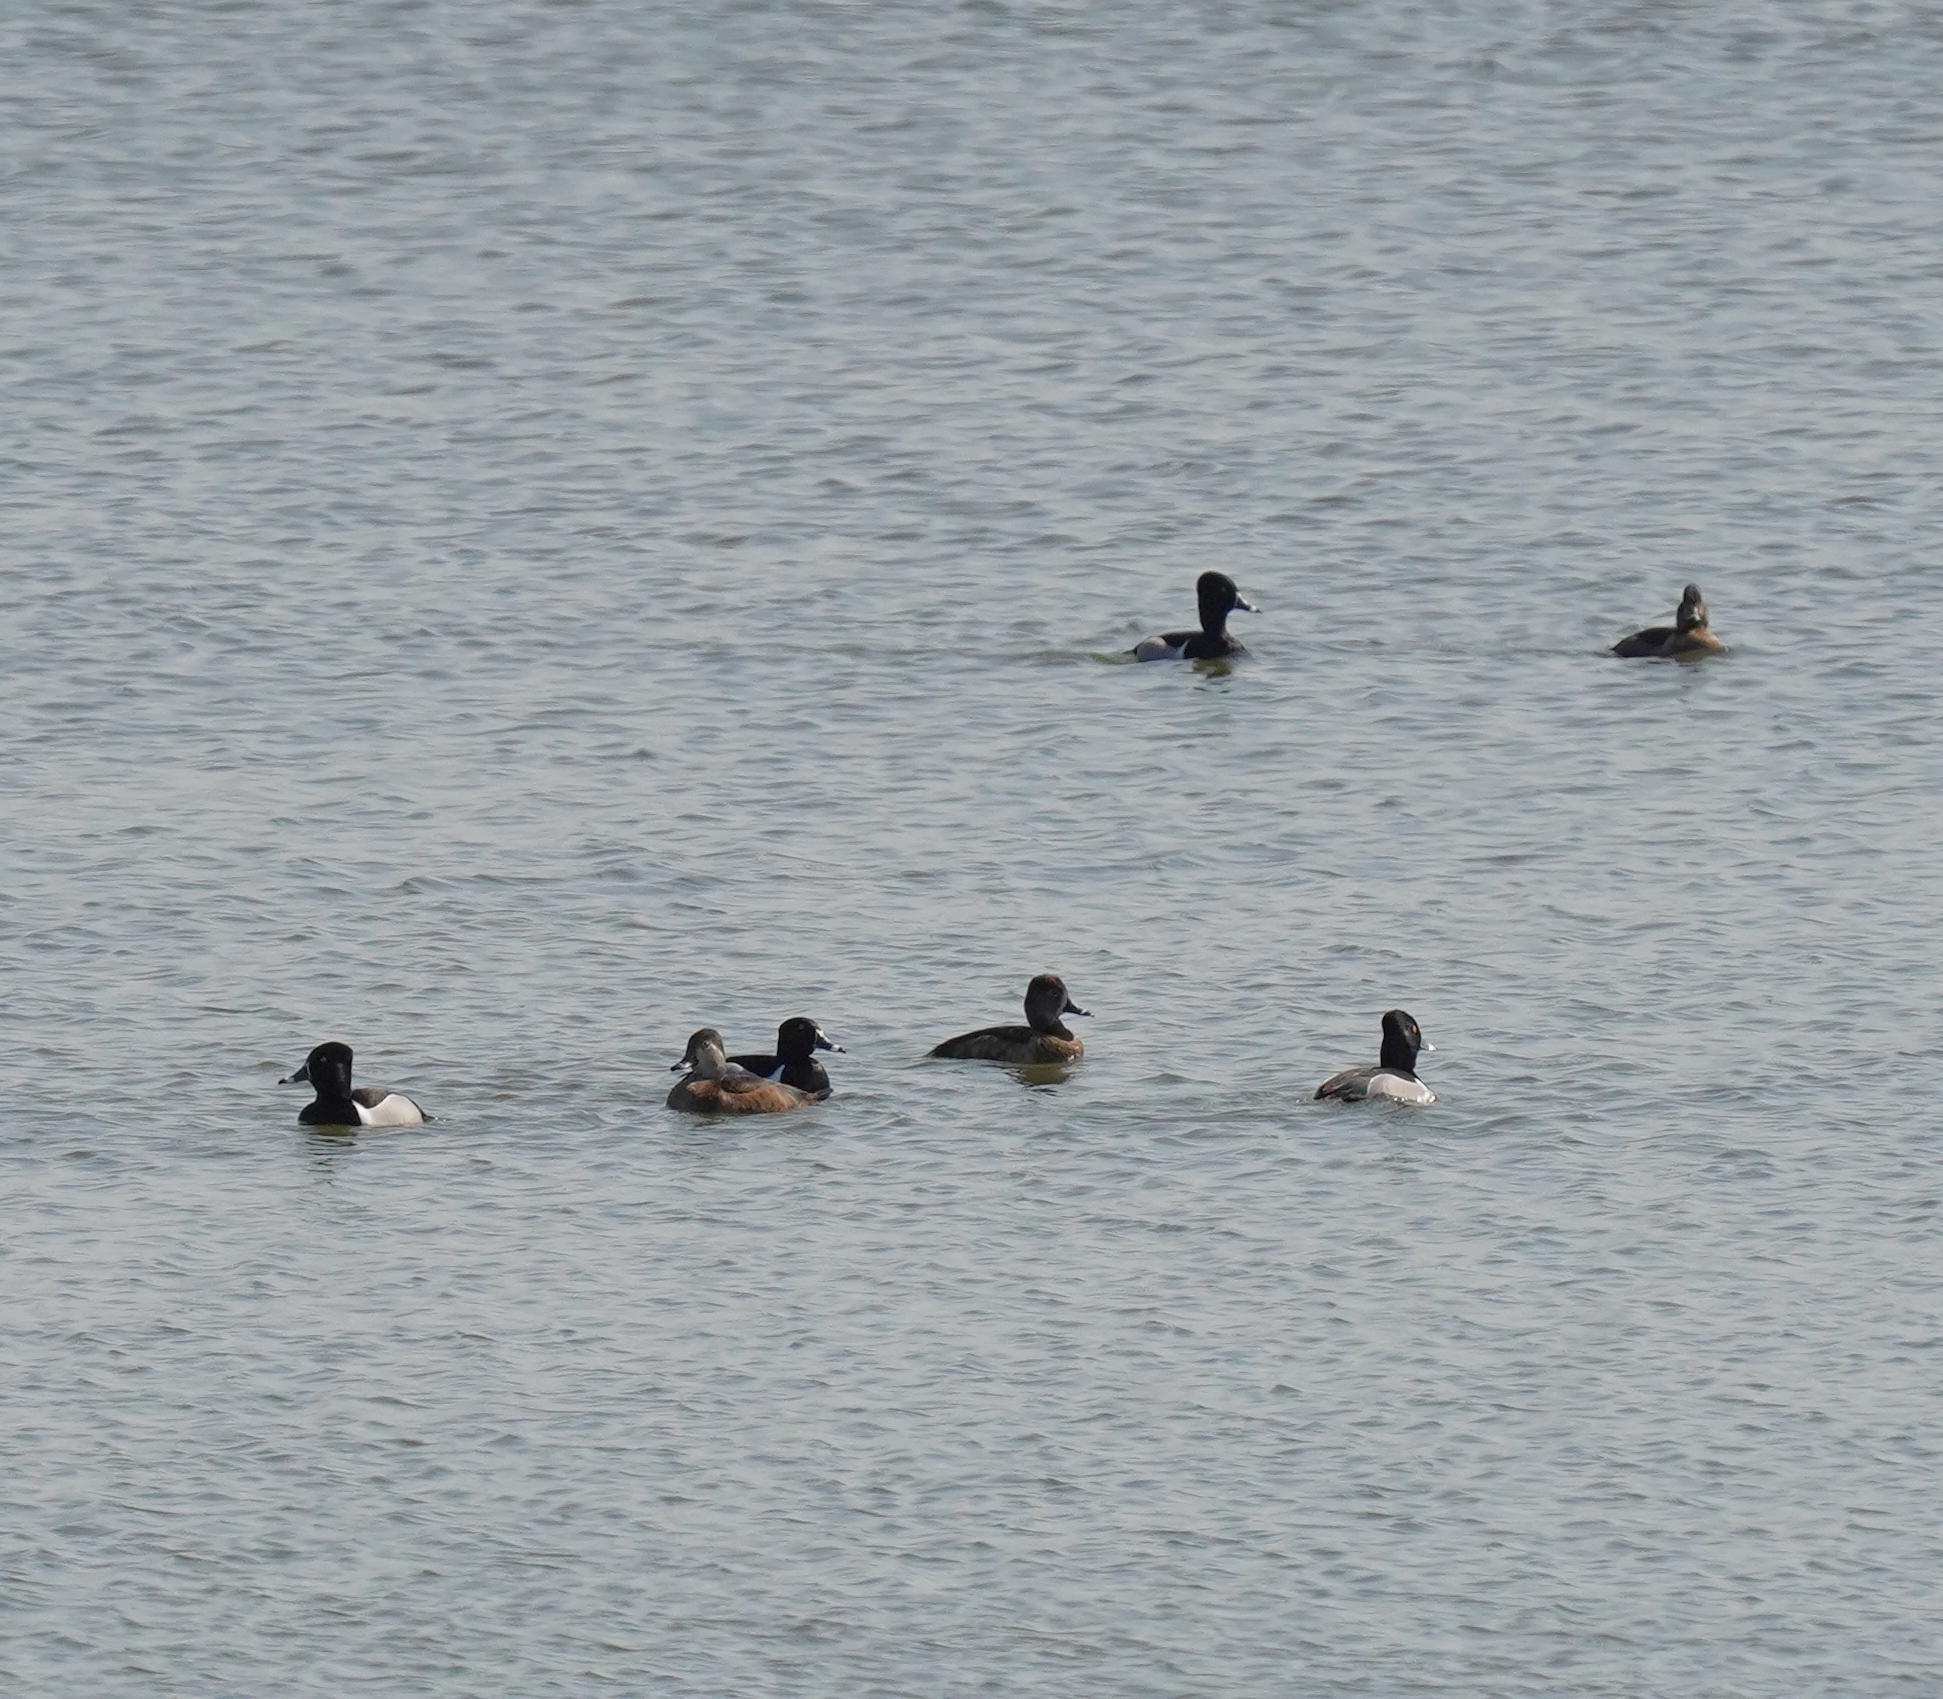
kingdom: Animalia
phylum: Chordata
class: Aves
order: Anseriformes
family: Anatidae
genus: Aythya
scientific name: Aythya collaris
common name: Ring-necked duck
